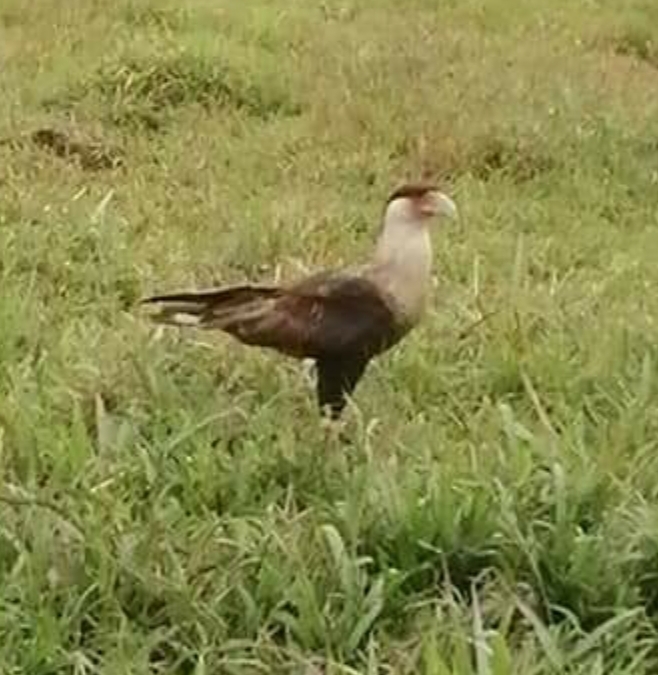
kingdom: Animalia
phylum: Chordata
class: Aves
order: Falconiformes
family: Falconidae
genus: Caracara
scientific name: Caracara plancus
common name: Southern caracara
